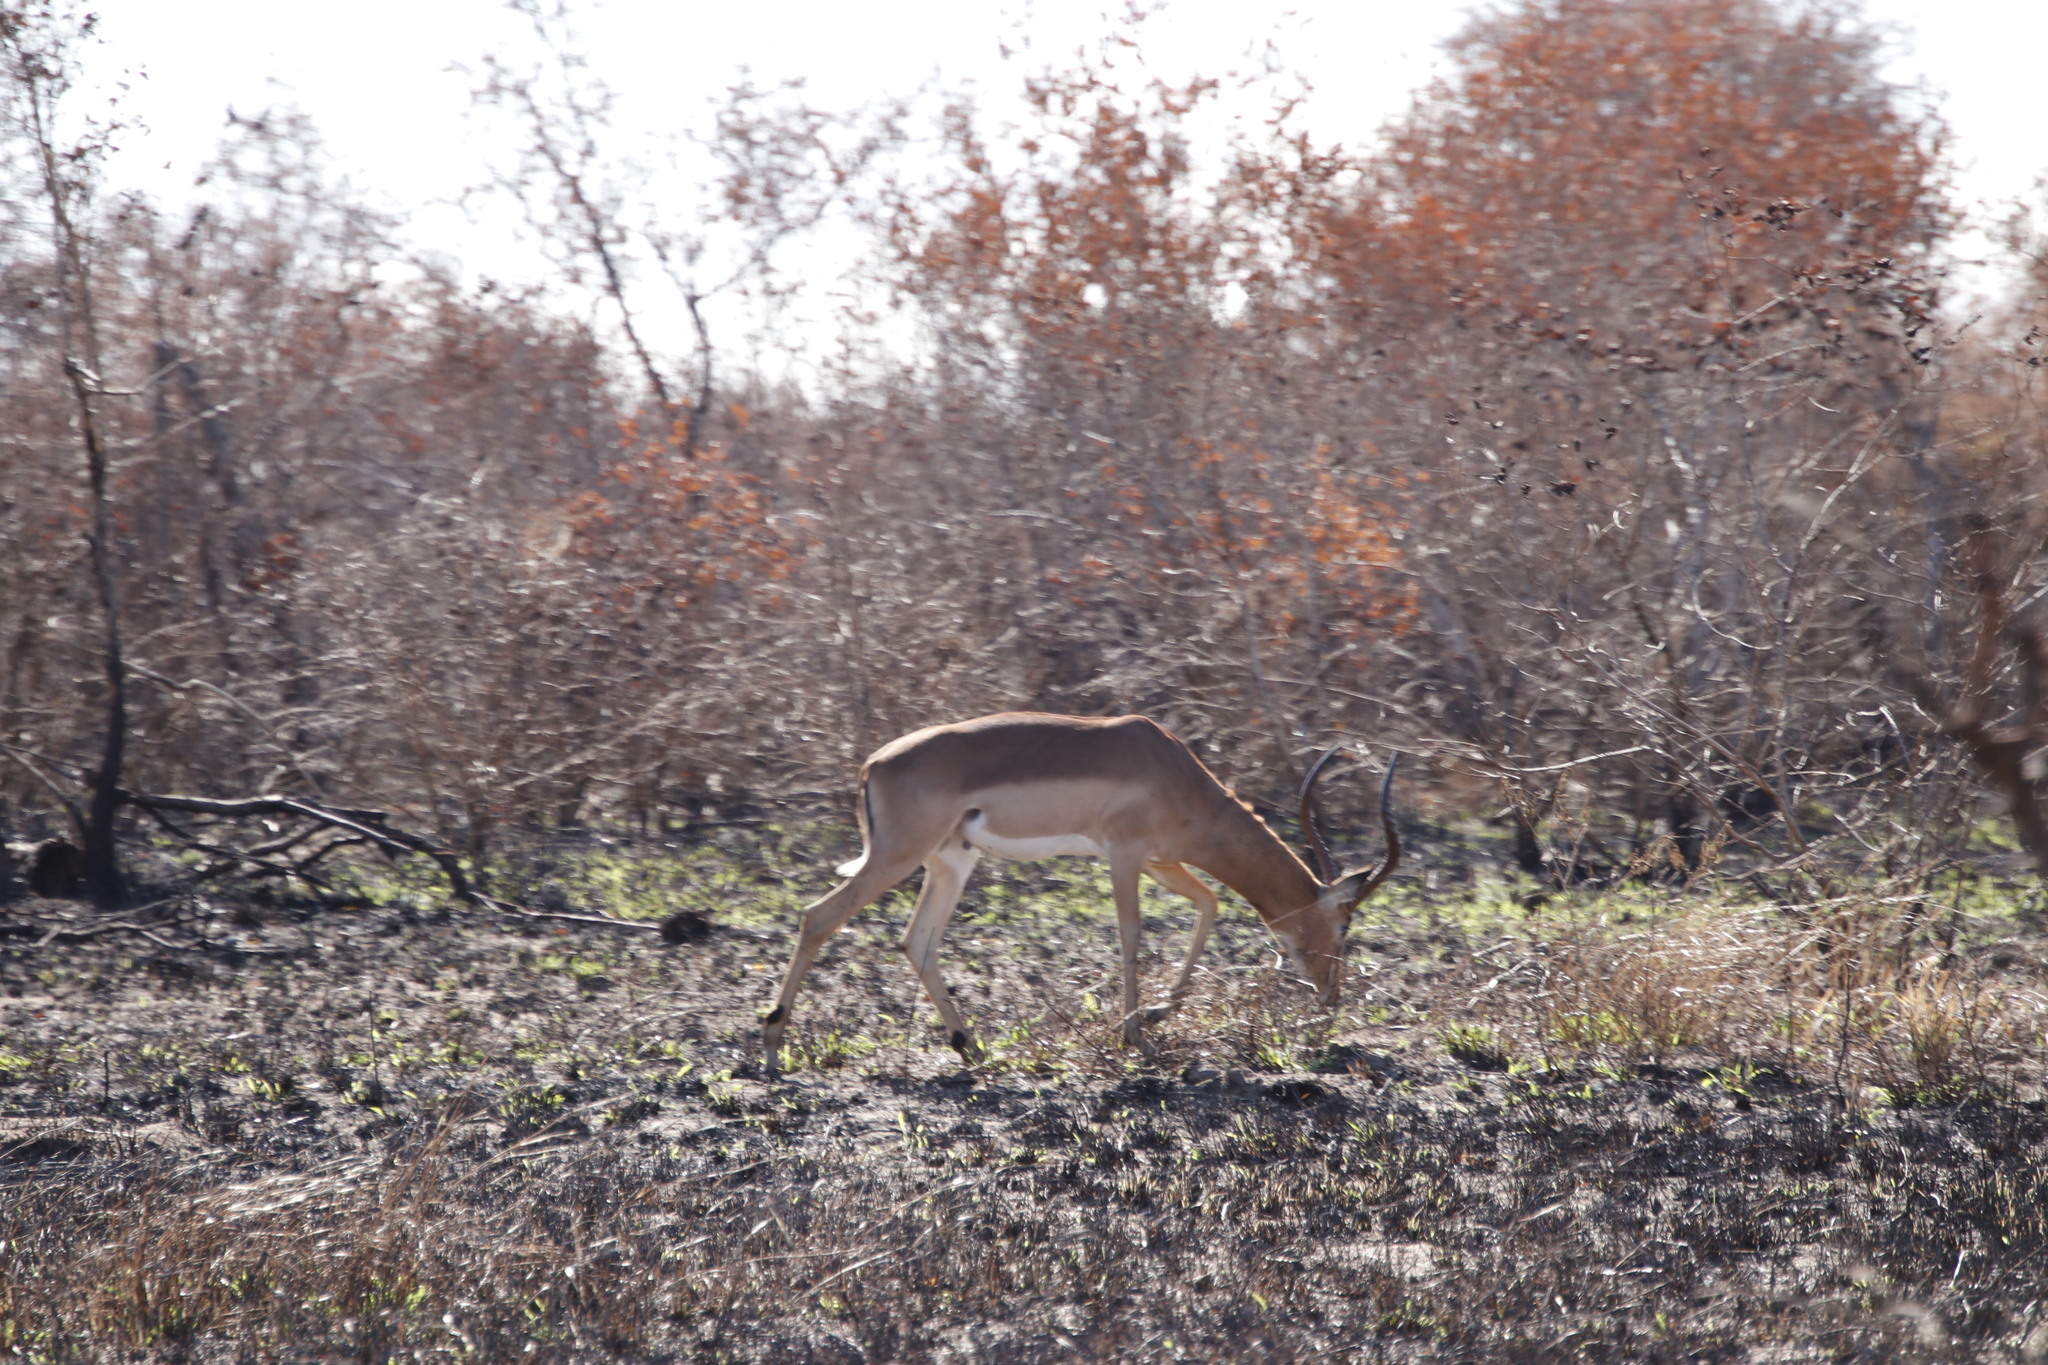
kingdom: Animalia
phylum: Chordata
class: Mammalia
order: Artiodactyla
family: Bovidae
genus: Aepyceros
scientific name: Aepyceros melampus
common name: Impala
